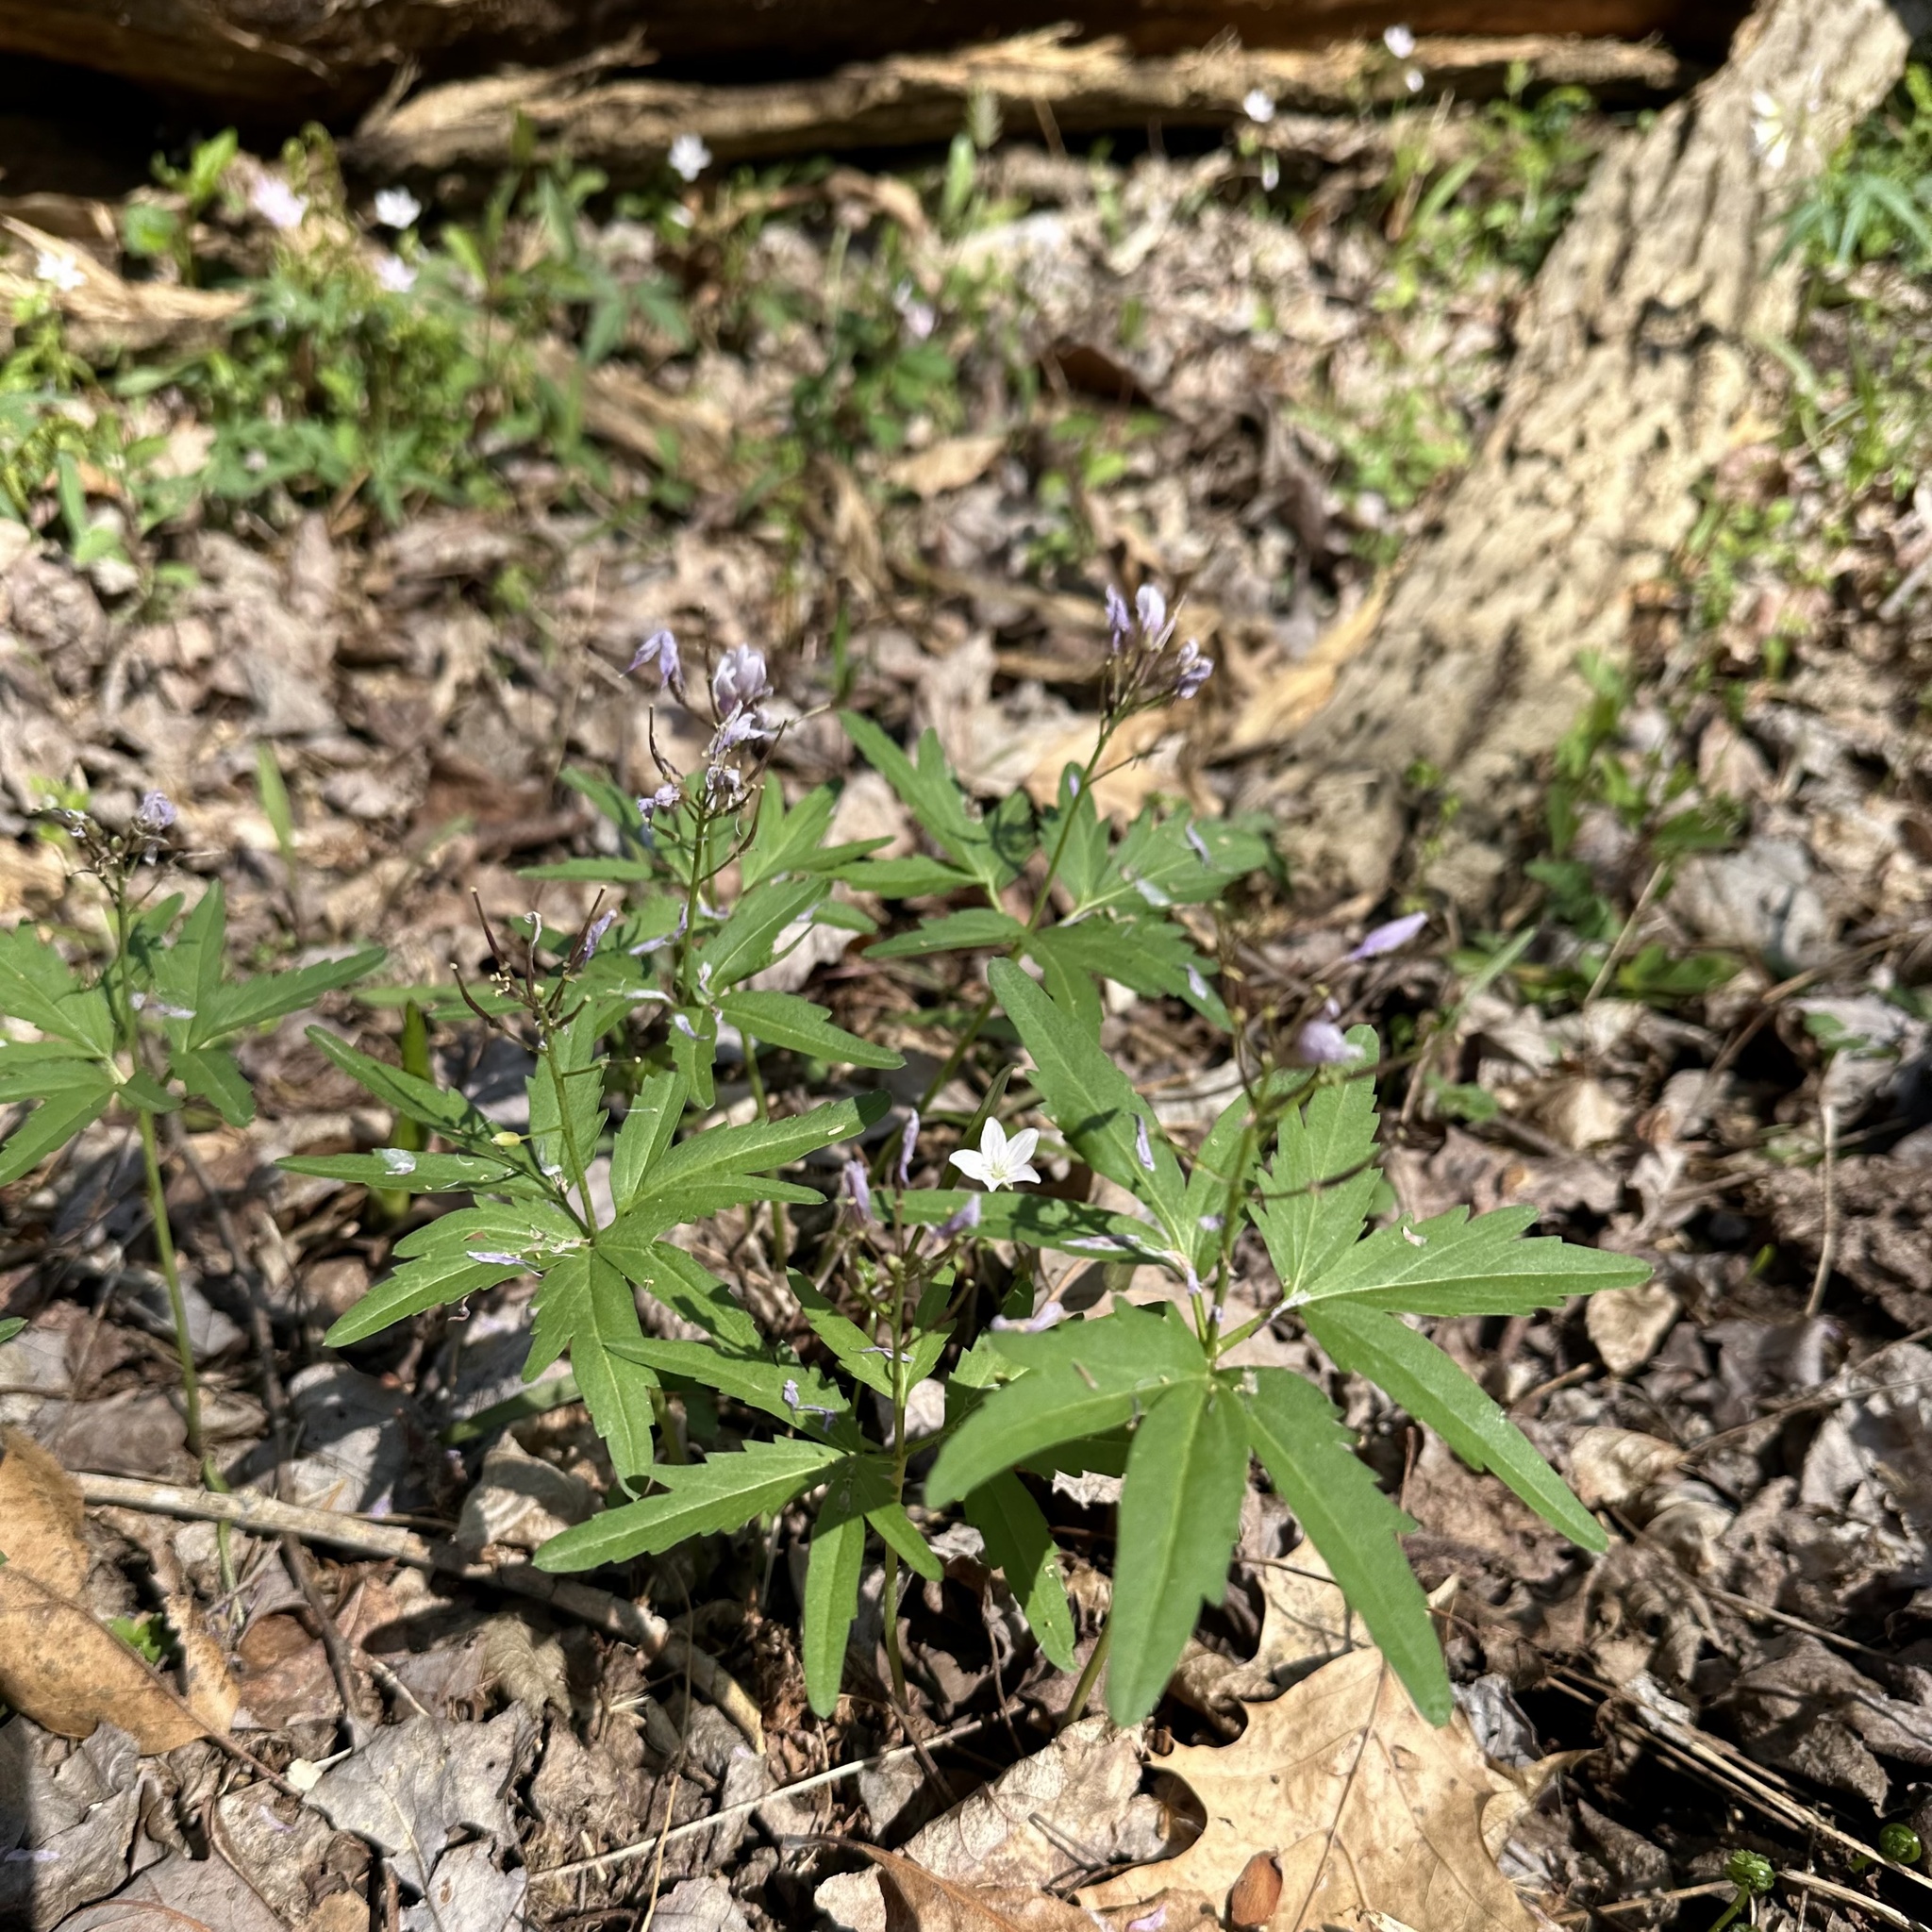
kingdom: Plantae
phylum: Tracheophyta
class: Magnoliopsida
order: Brassicales
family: Brassicaceae
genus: Cardamine
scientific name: Cardamine concatenata
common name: Cut-leaf toothcup
